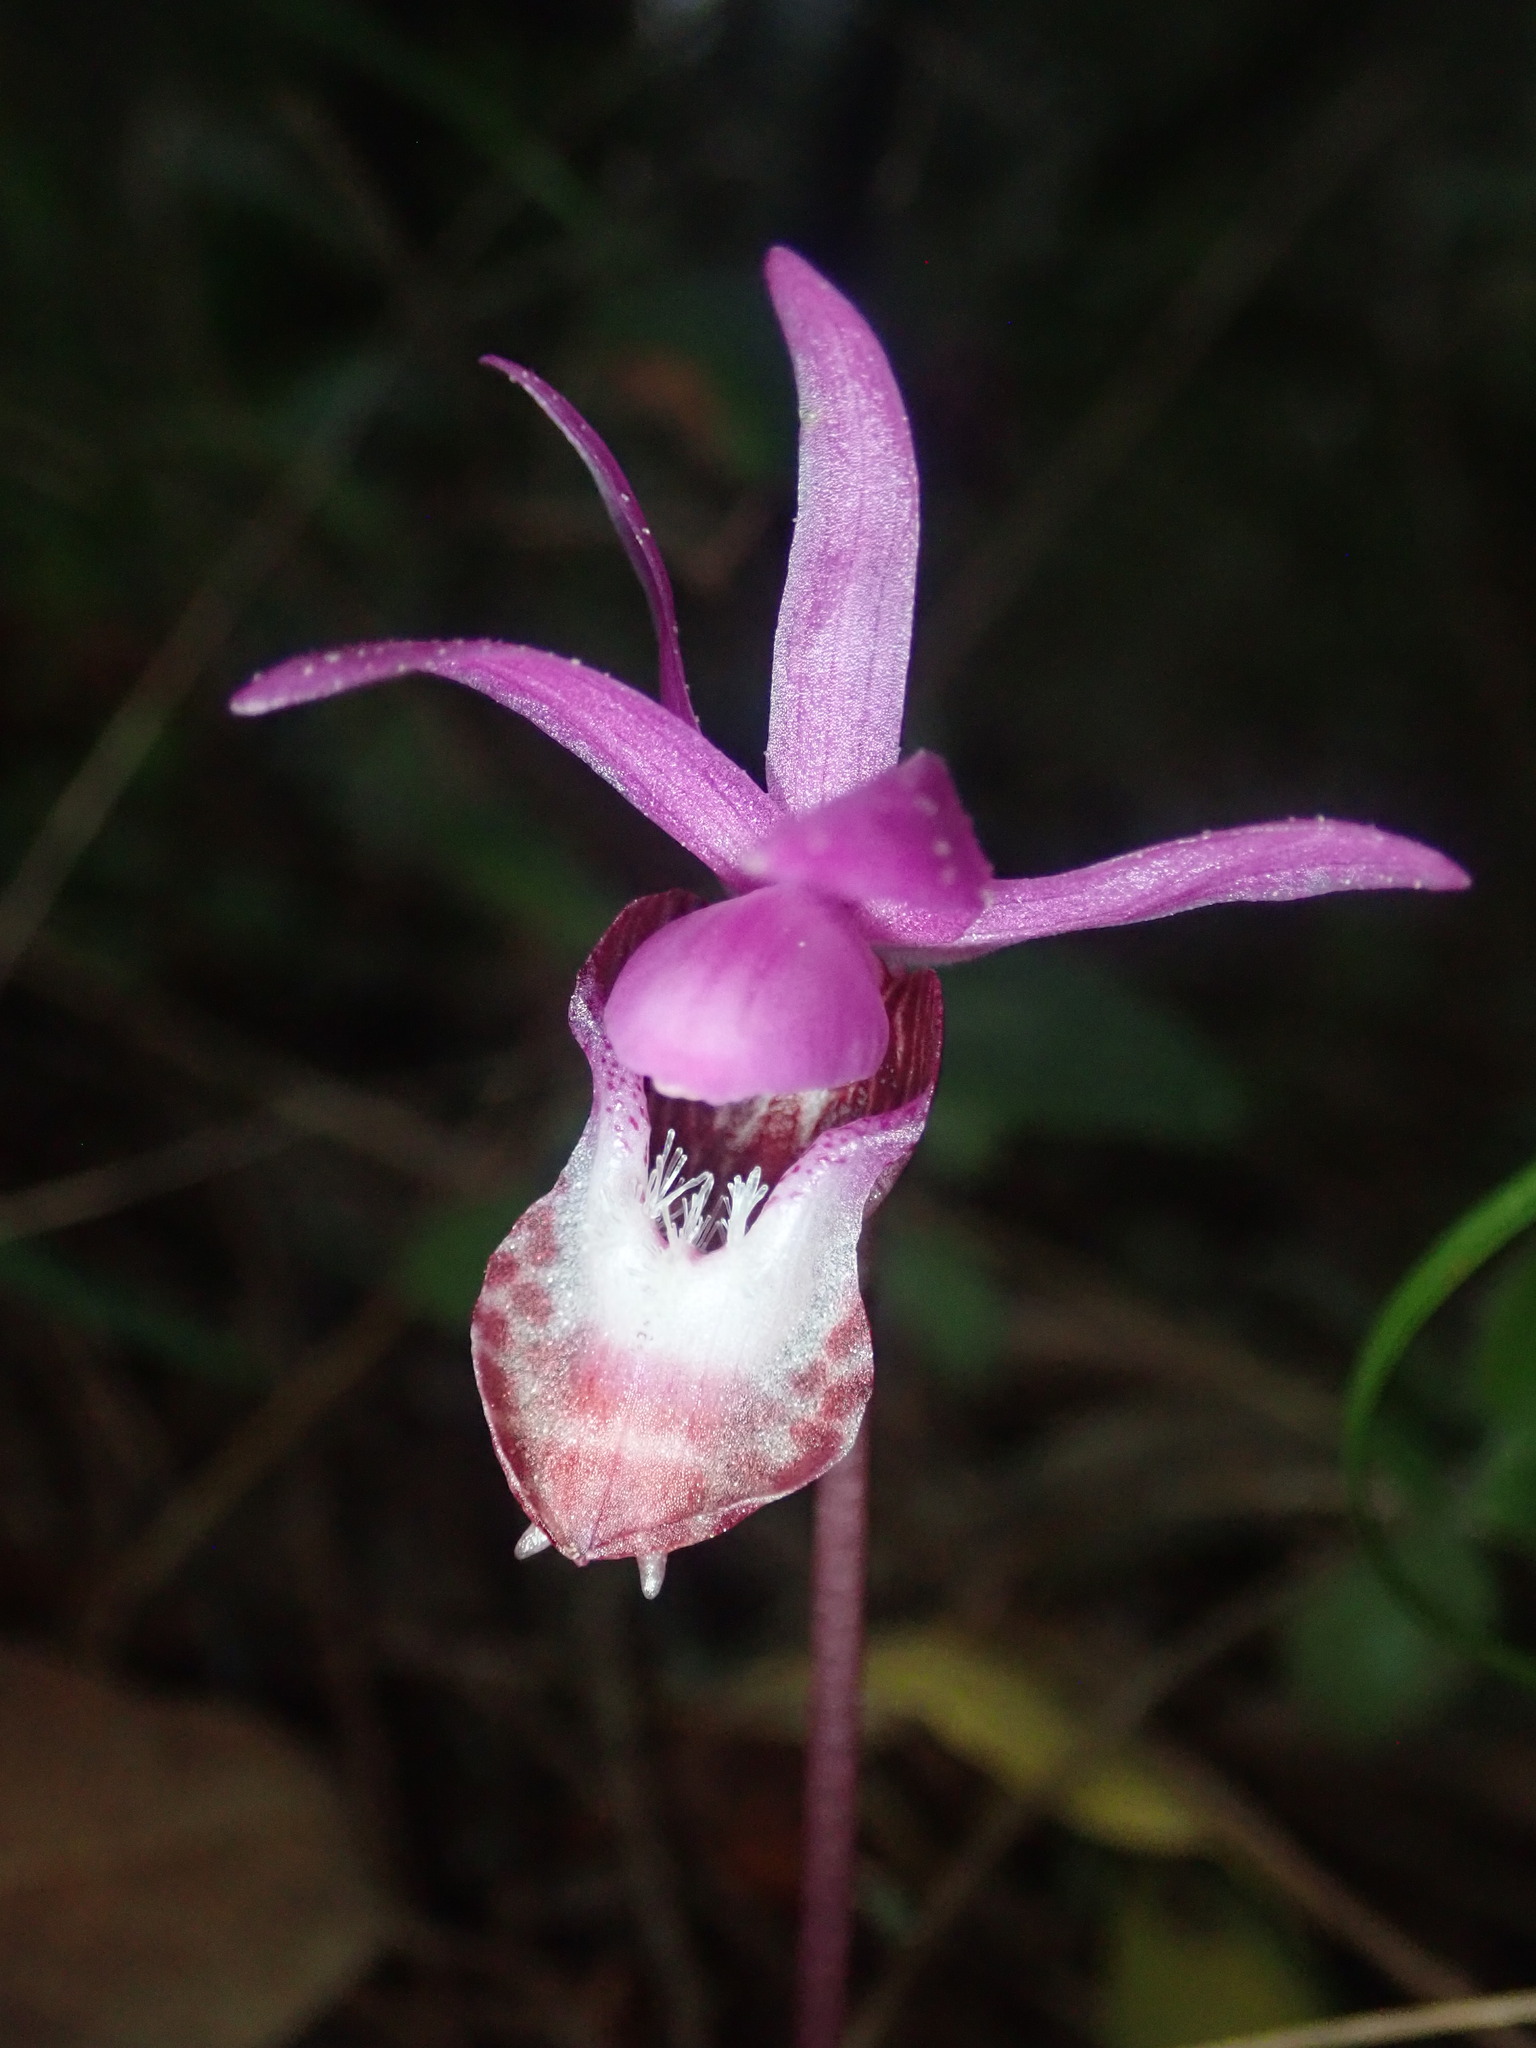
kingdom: Plantae
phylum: Tracheophyta
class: Liliopsida
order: Asparagales
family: Orchidaceae
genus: Calypso
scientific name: Calypso bulbosa
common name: Calypso
